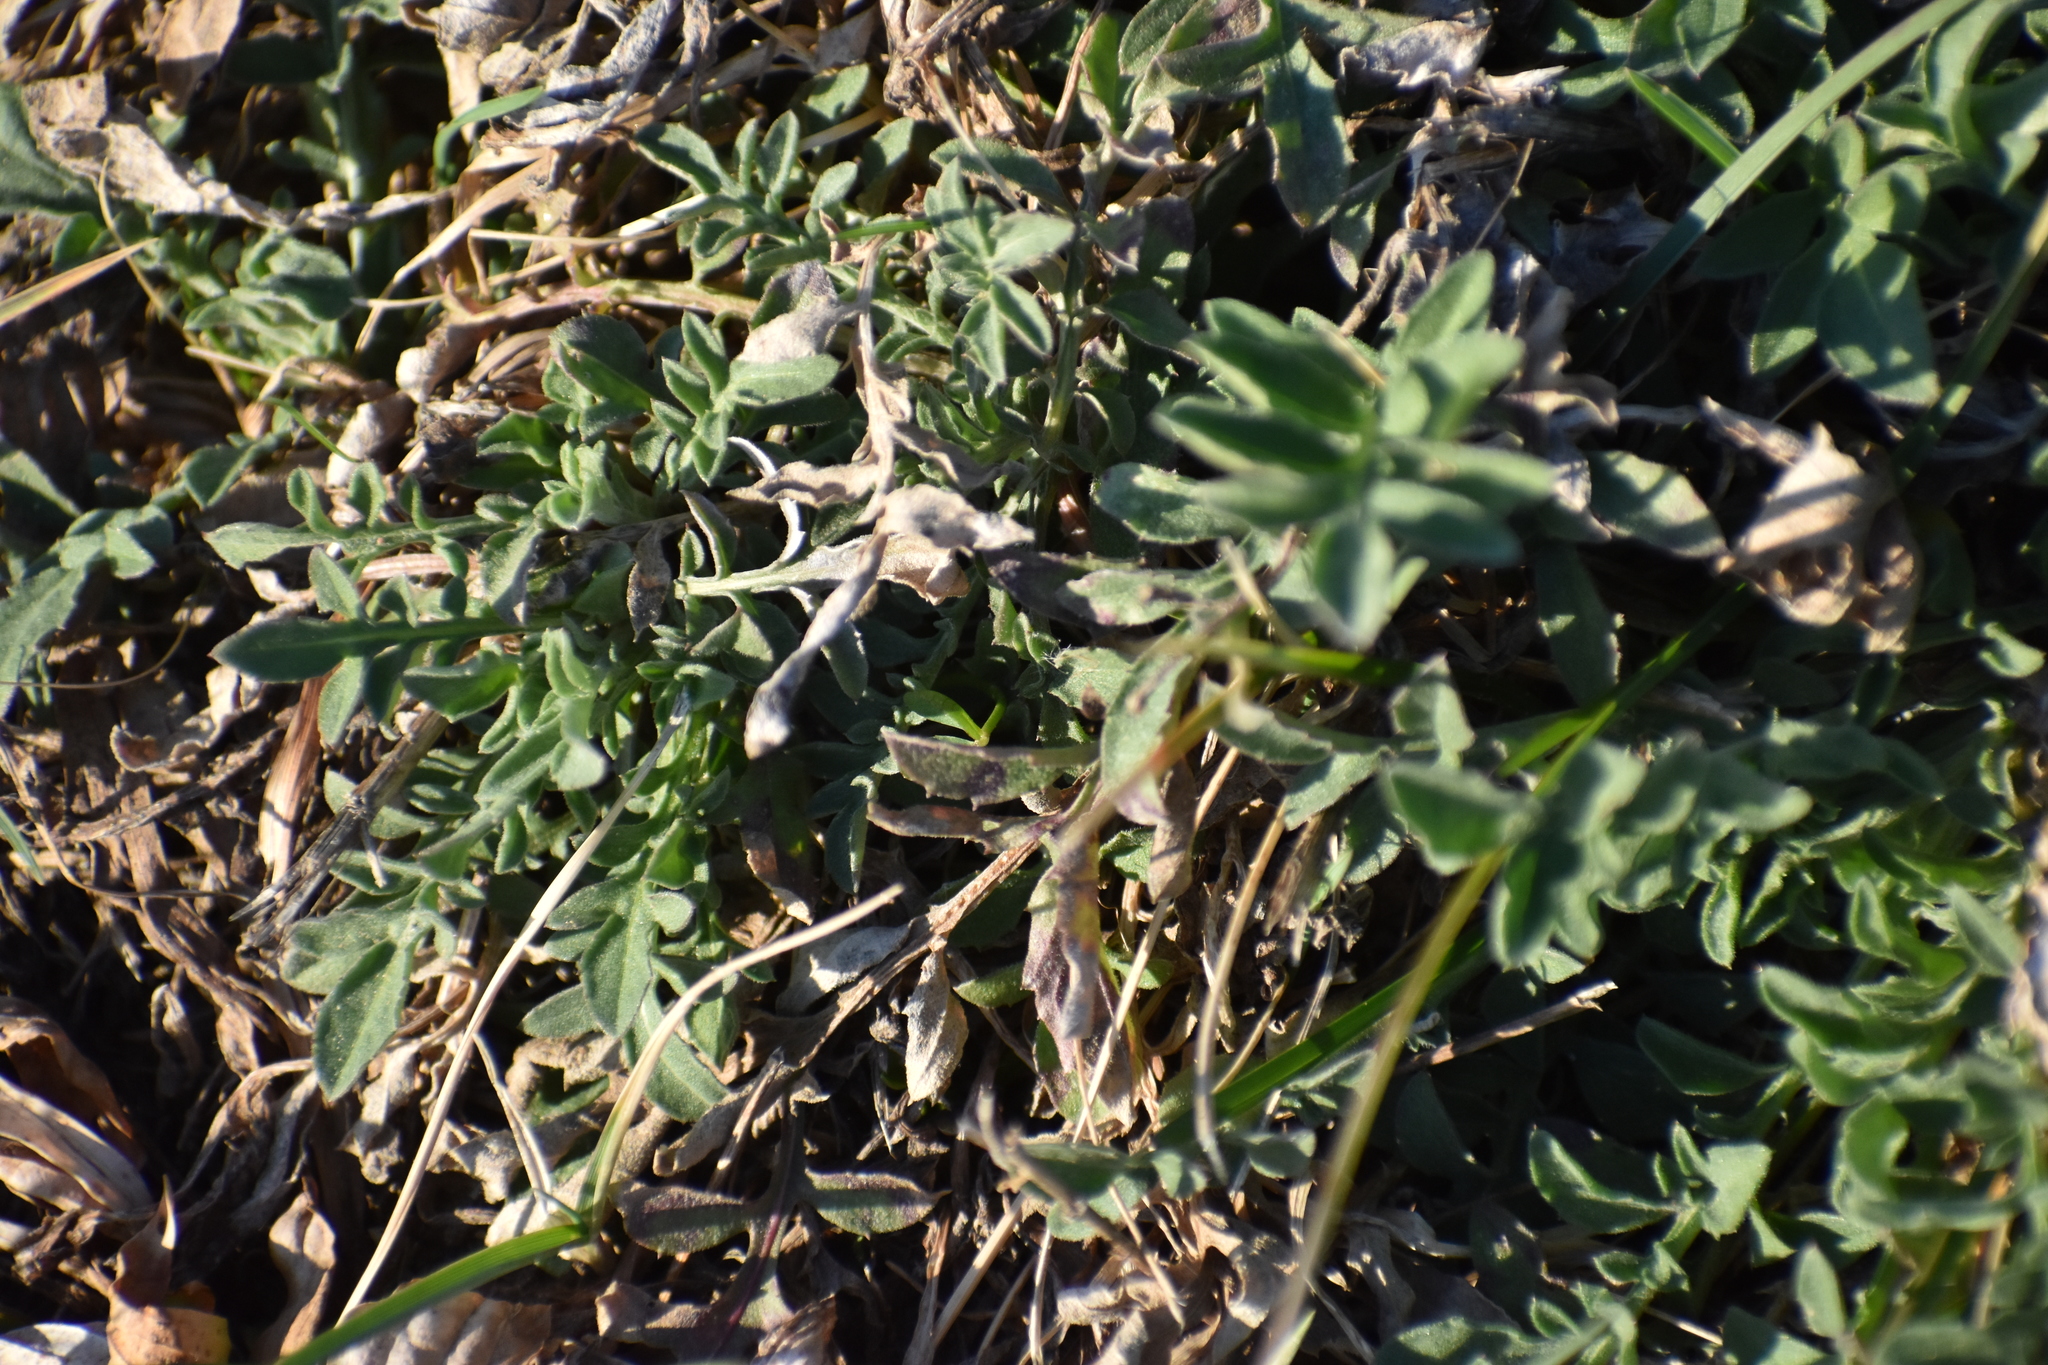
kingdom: Plantae
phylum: Tracheophyta
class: Magnoliopsida
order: Asterales
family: Asteraceae
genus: Centaurea
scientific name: Centaurea stoebe
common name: Spotted knapweed
